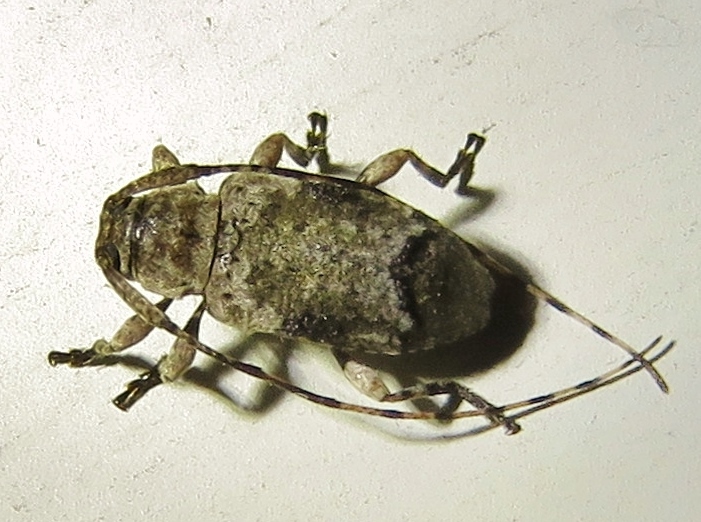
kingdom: Animalia
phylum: Arthropoda
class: Insecta
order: Coleoptera
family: Cerambycidae
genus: Sternidius
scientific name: Sternidius mimeticus
